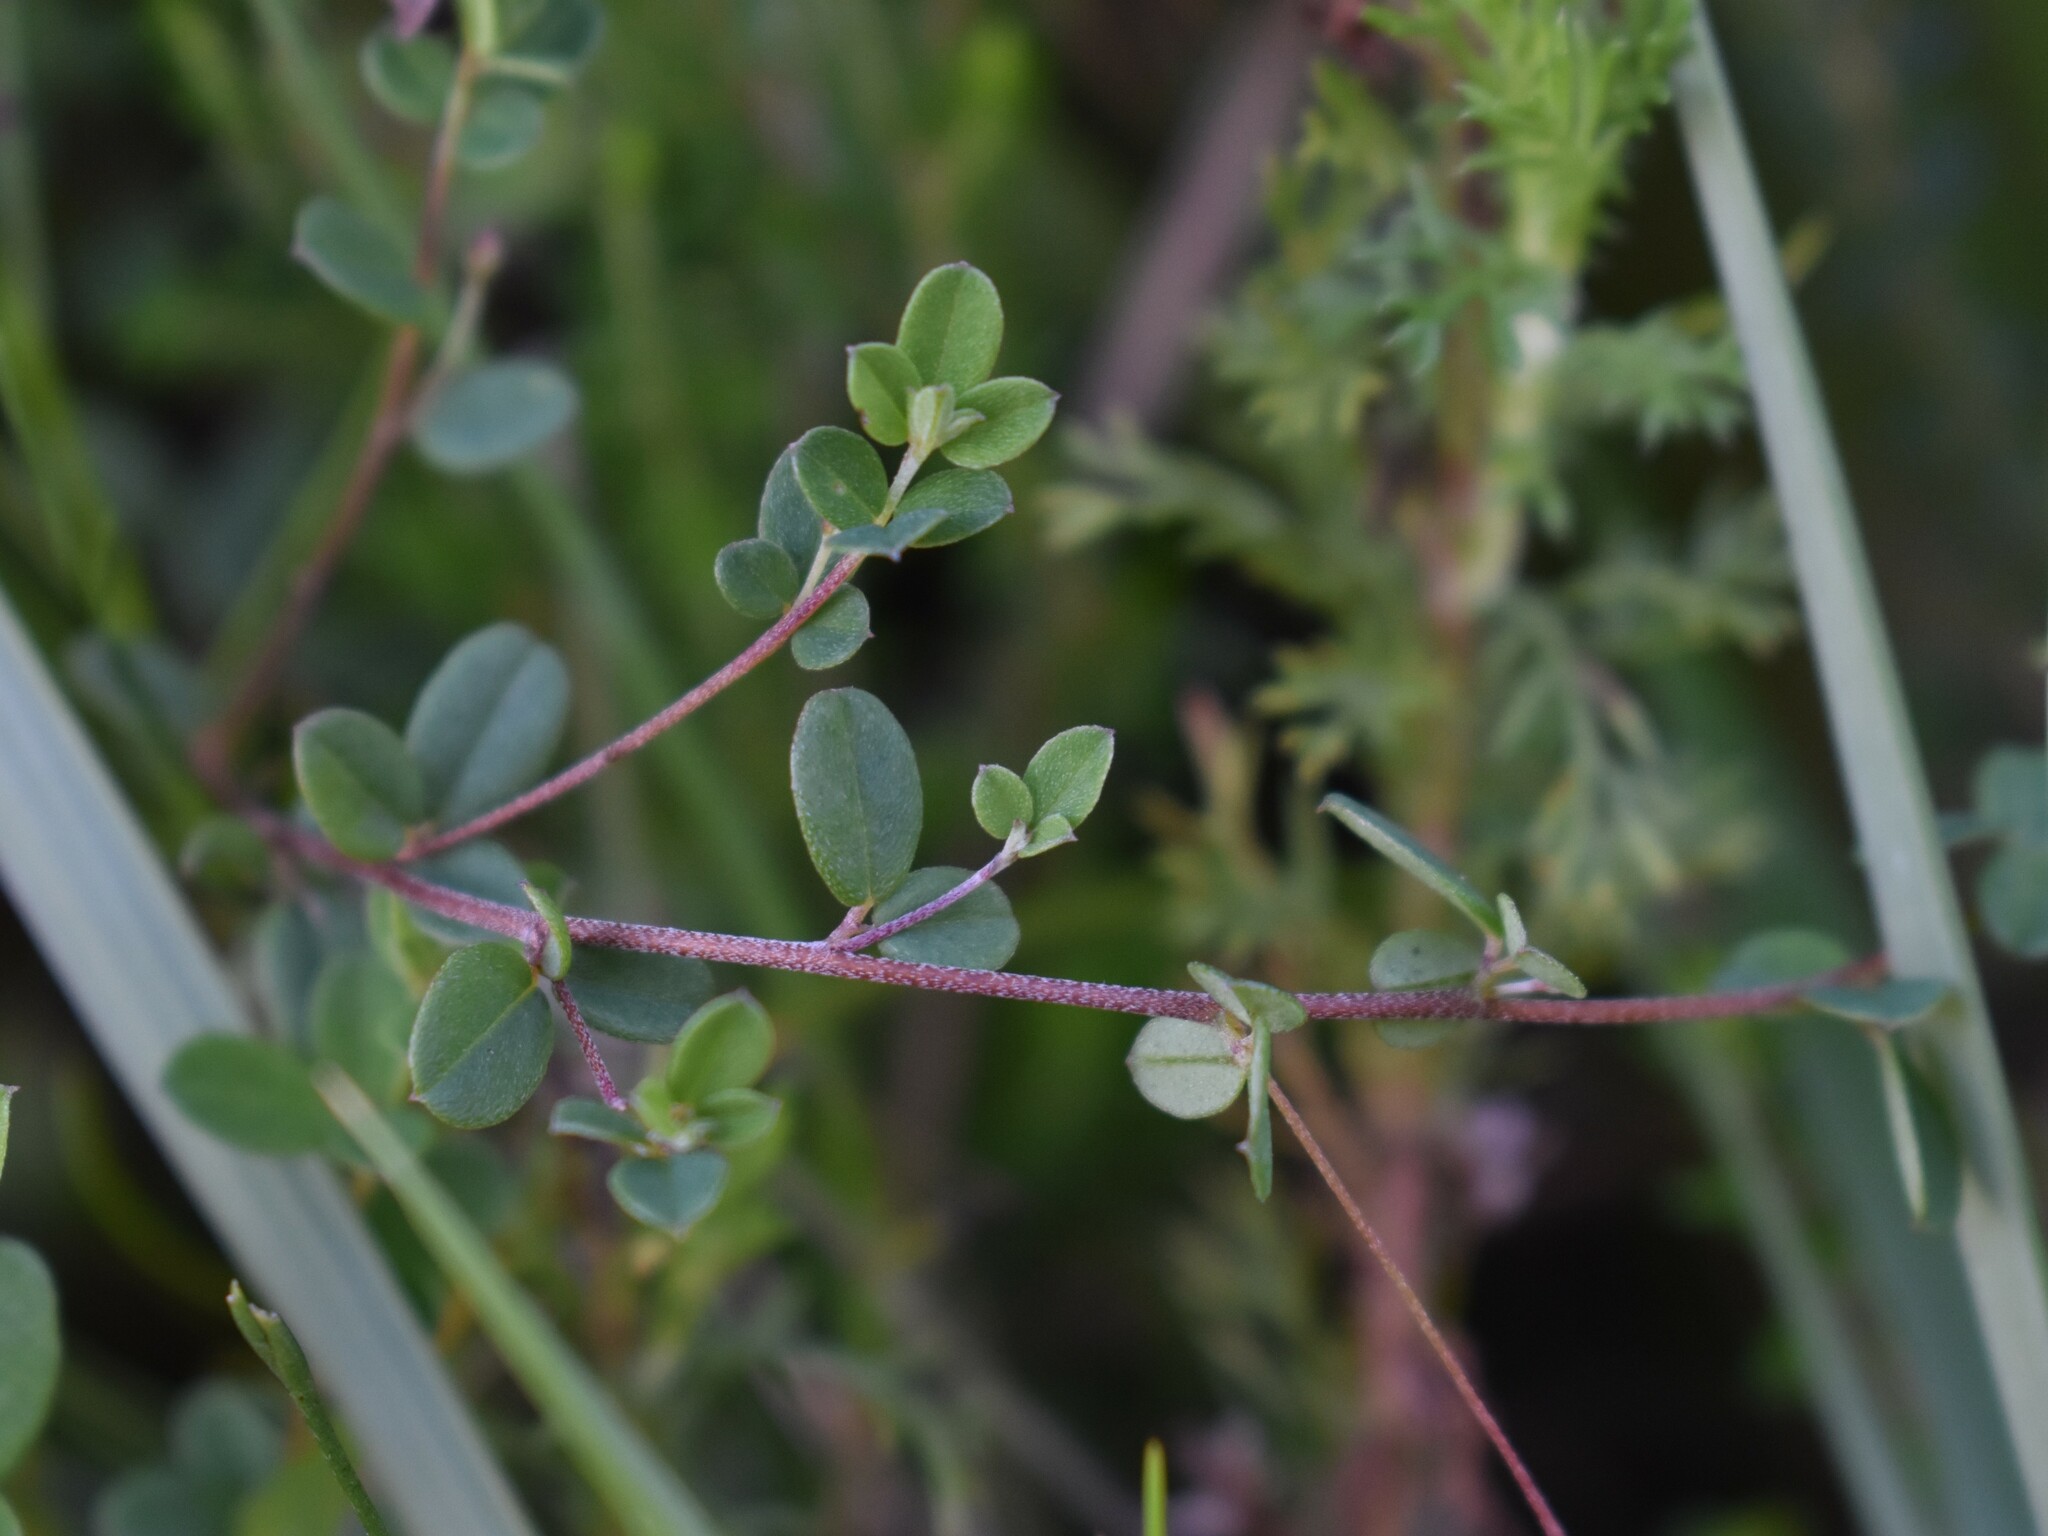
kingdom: Plantae
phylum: Tracheophyta
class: Magnoliopsida
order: Fabales
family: Fabaceae
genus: Indigofera
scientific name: Indigofera sarmentosa
